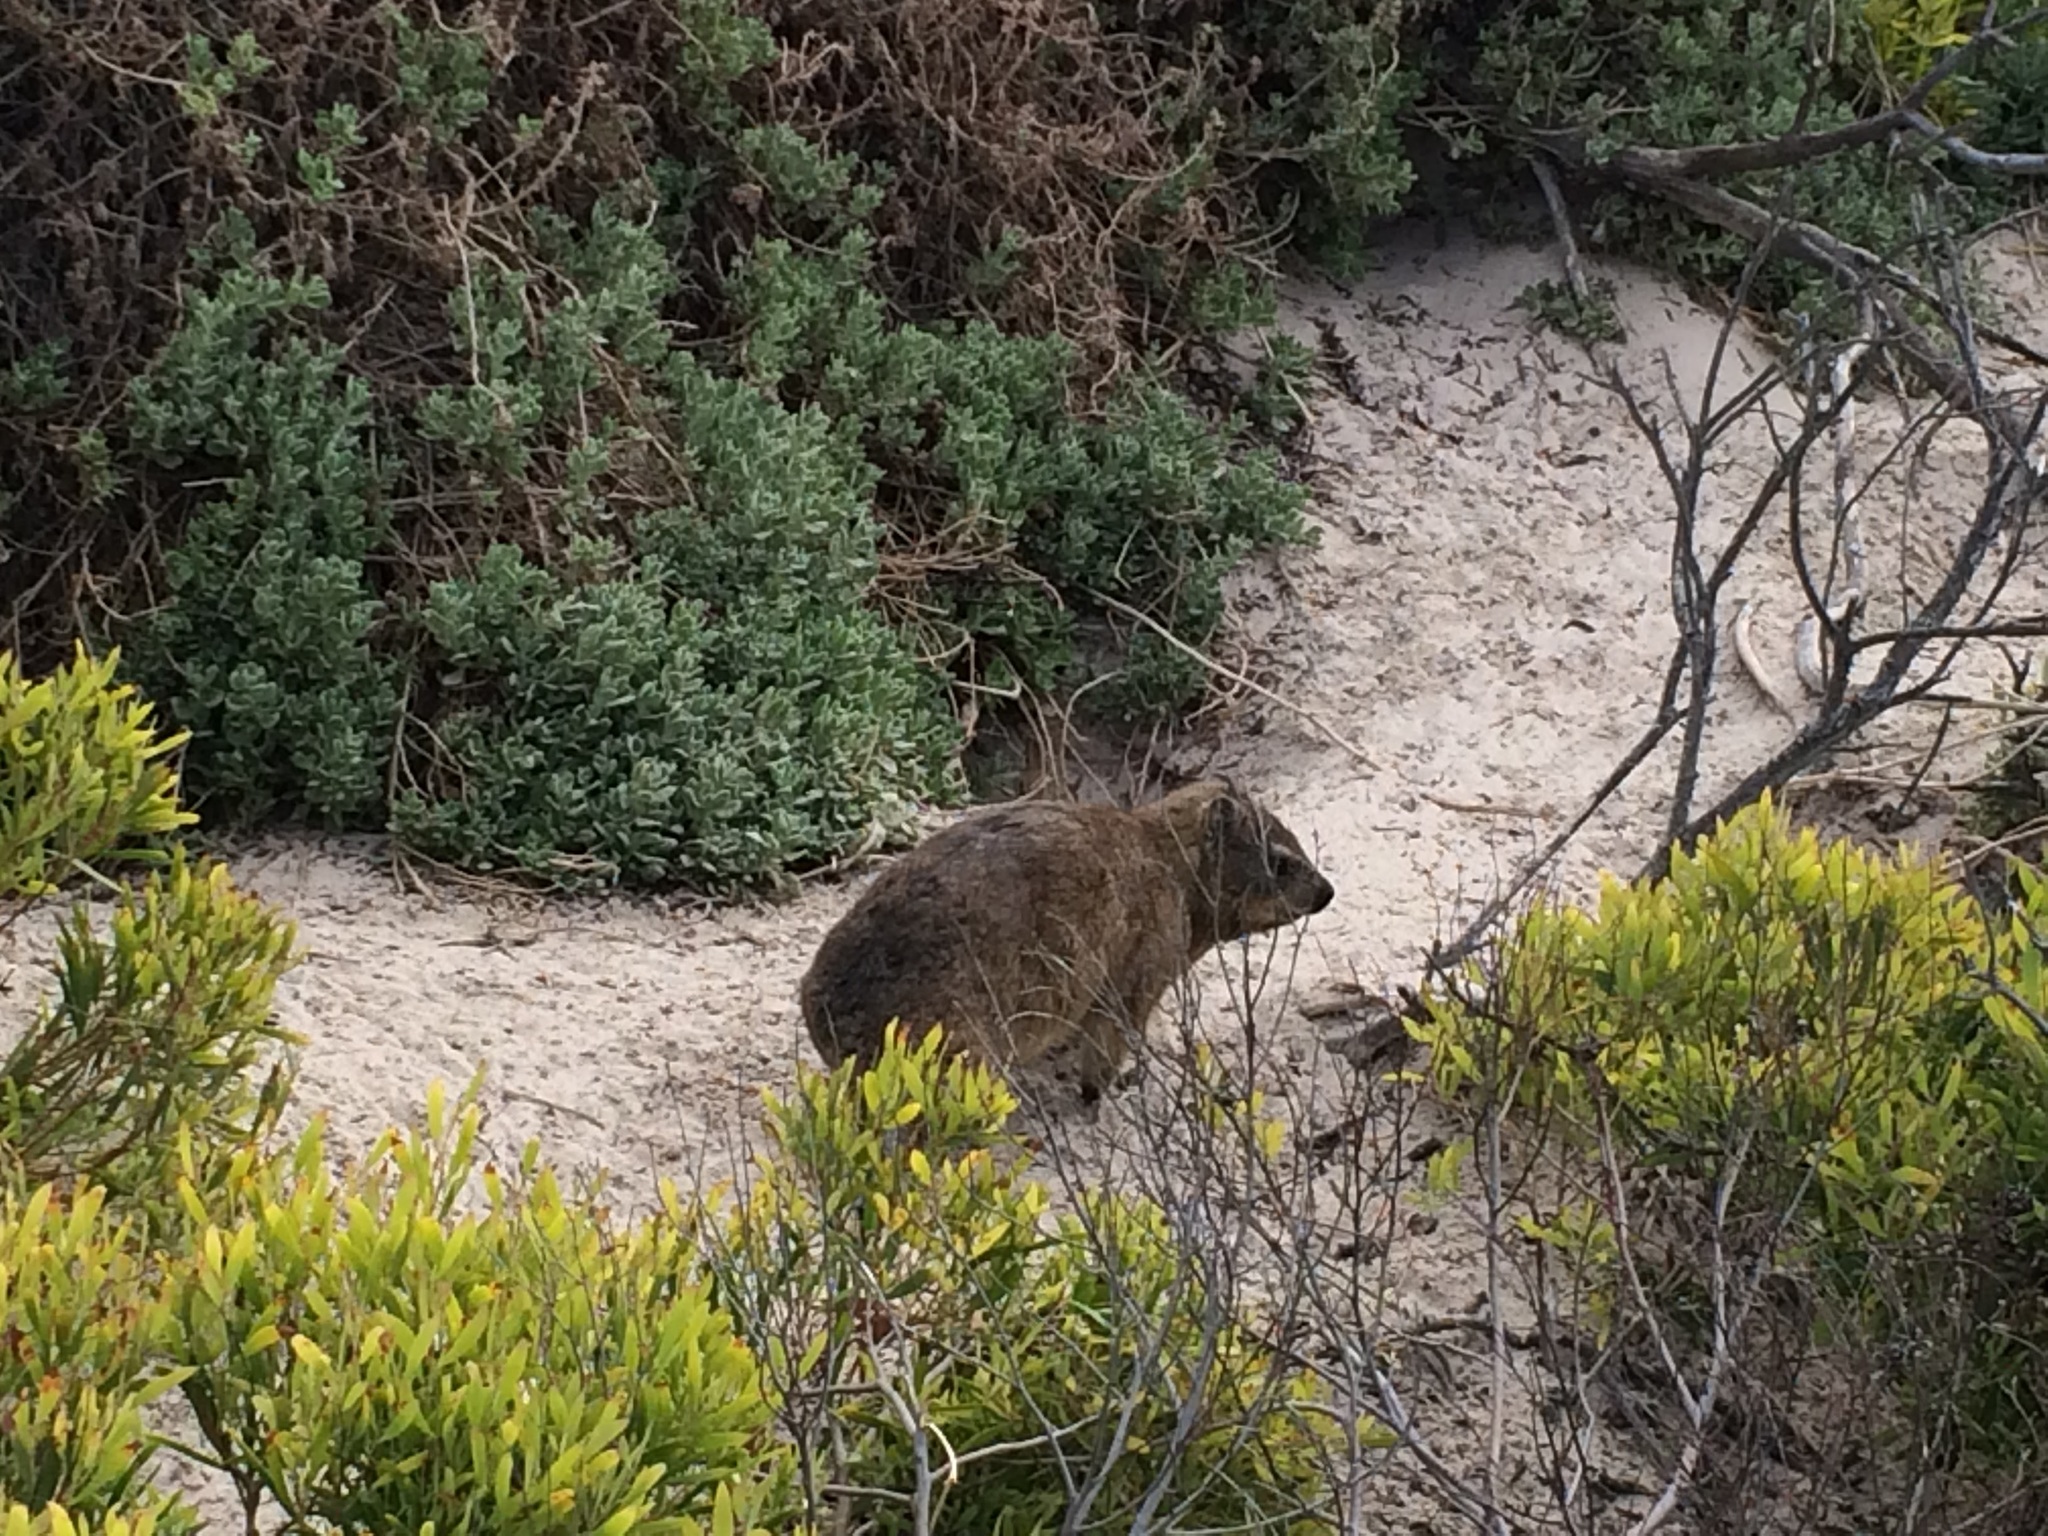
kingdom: Animalia
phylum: Chordata
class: Mammalia
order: Hyracoidea
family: Procaviidae
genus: Procavia
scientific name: Procavia capensis
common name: Rock hyrax
